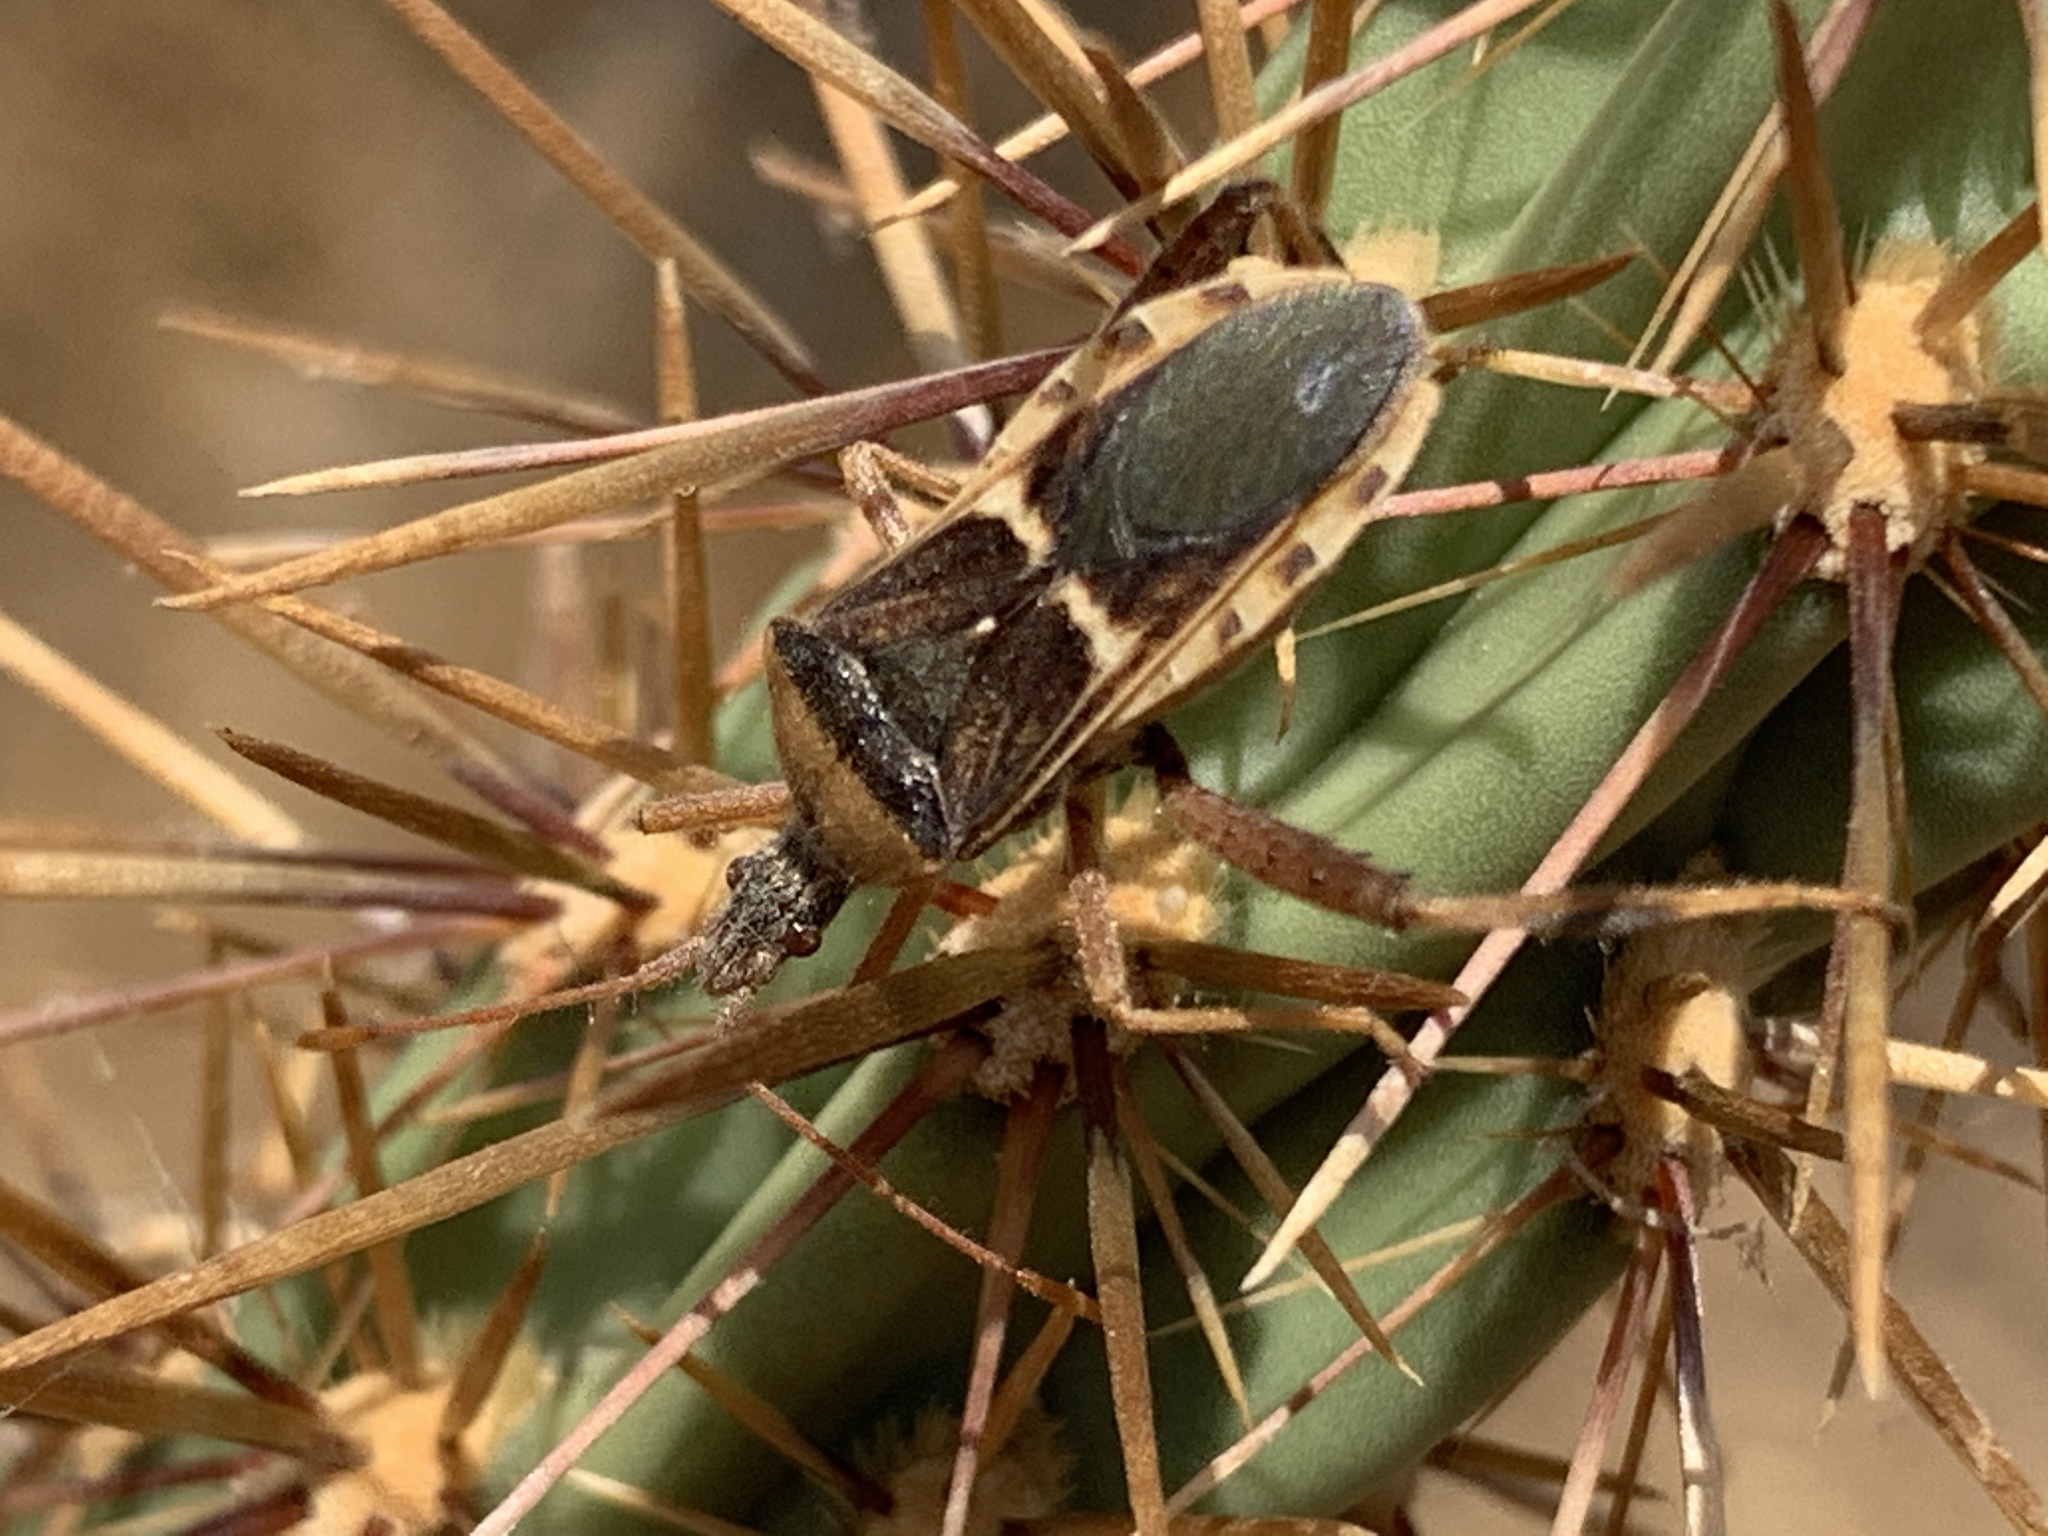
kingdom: Animalia
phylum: Arthropoda
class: Insecta
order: Hemiptera
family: Coreidae
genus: Narnia
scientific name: Narnia snowi
